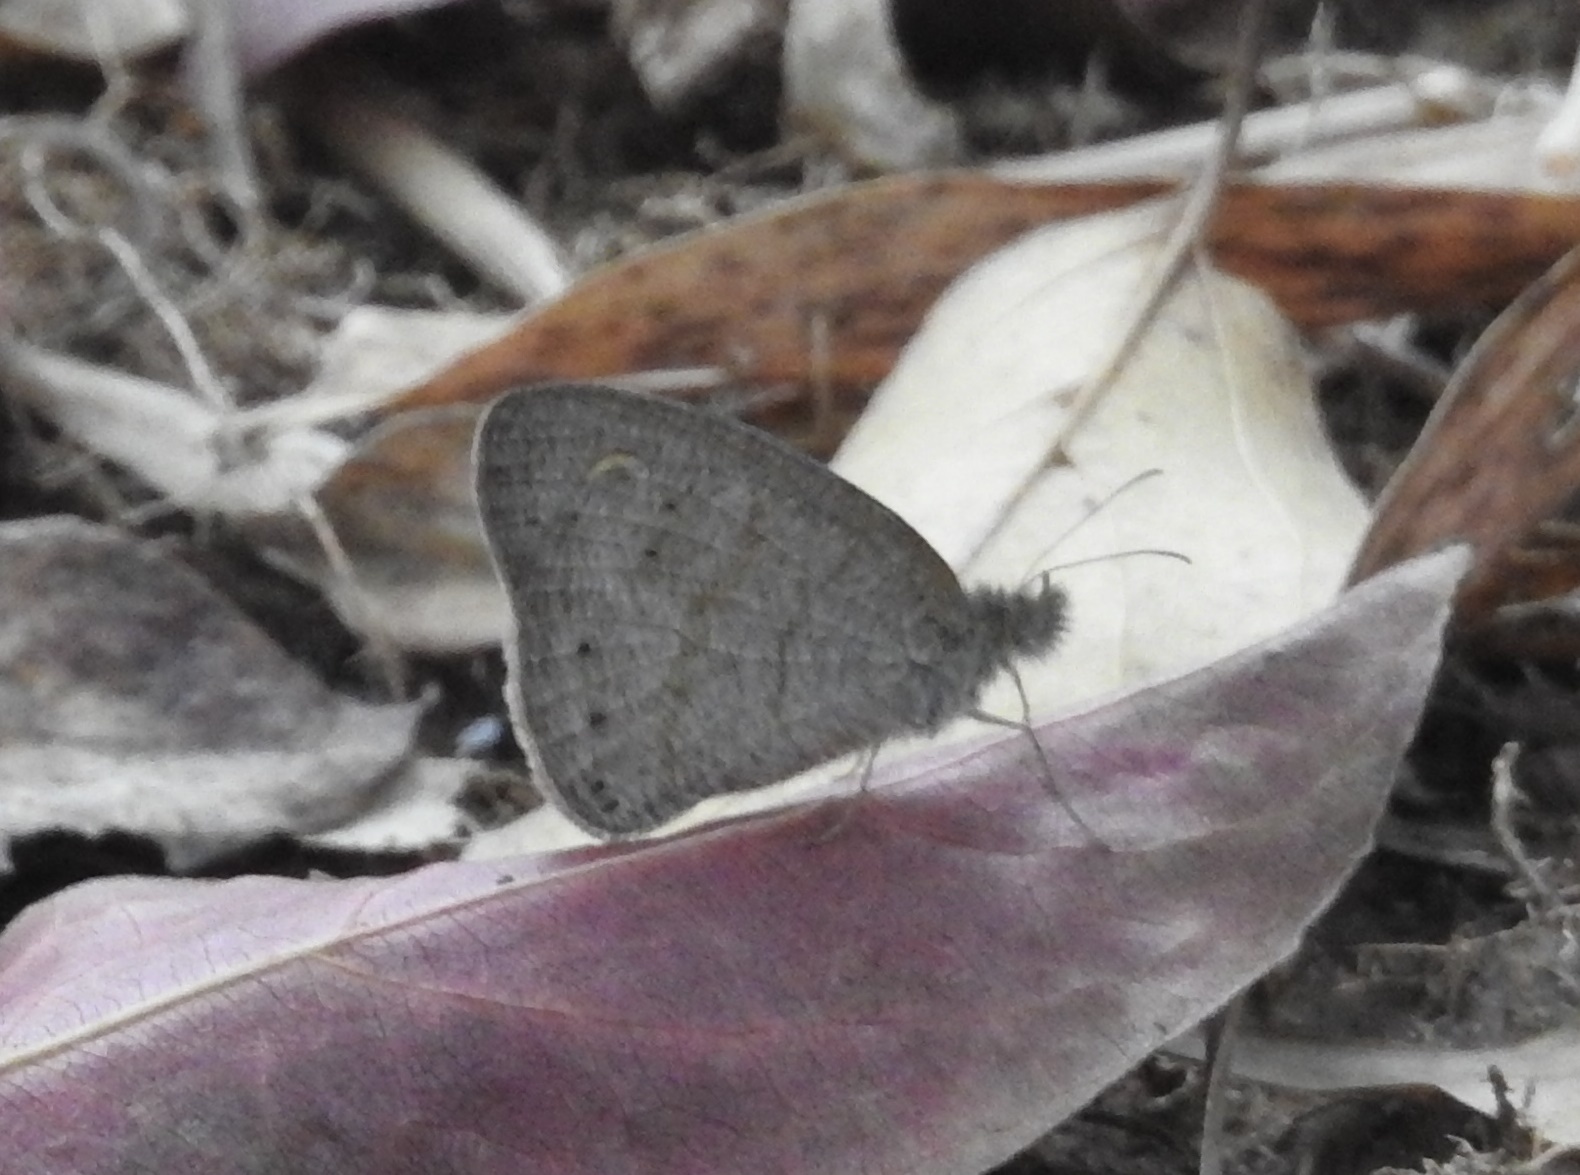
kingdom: Animalia
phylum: Arthropoda
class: Insecta
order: Lepidoptera
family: Nymphalidae
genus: Ypthima
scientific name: Ypthima baldus
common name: Common five-ring
